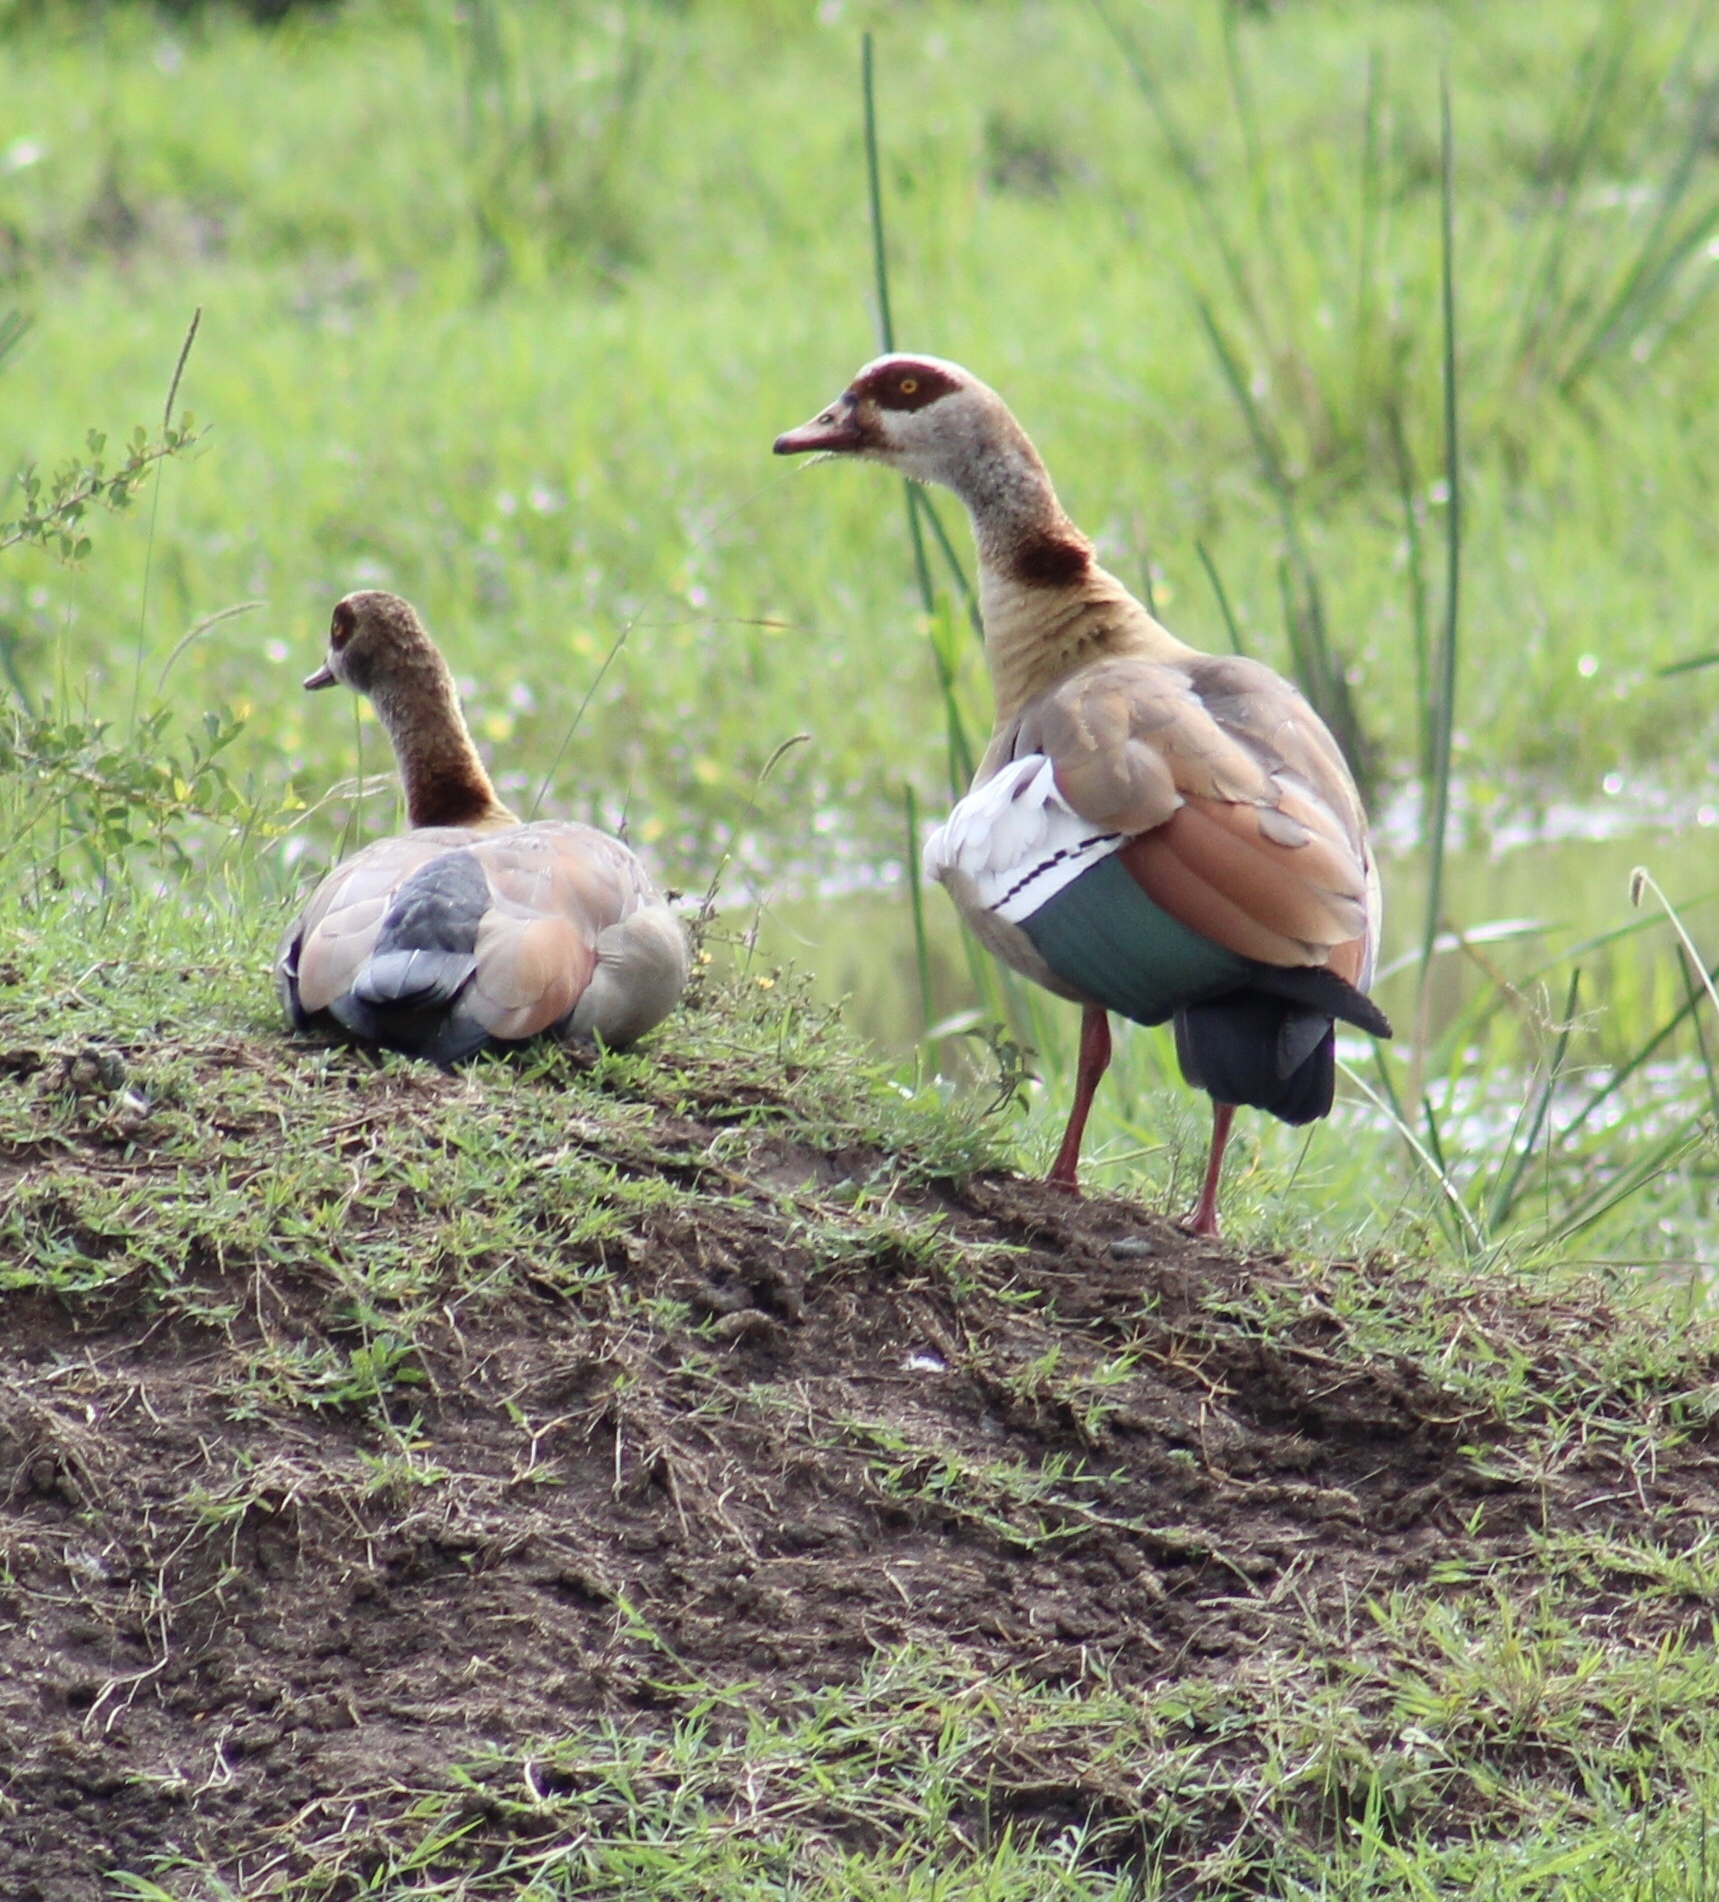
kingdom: Animalia
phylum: Chordata
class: Aves
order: Anseriformes
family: Anatidae
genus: Alopochen
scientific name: Alopochen aegyptiaca
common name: Egyptian goose
